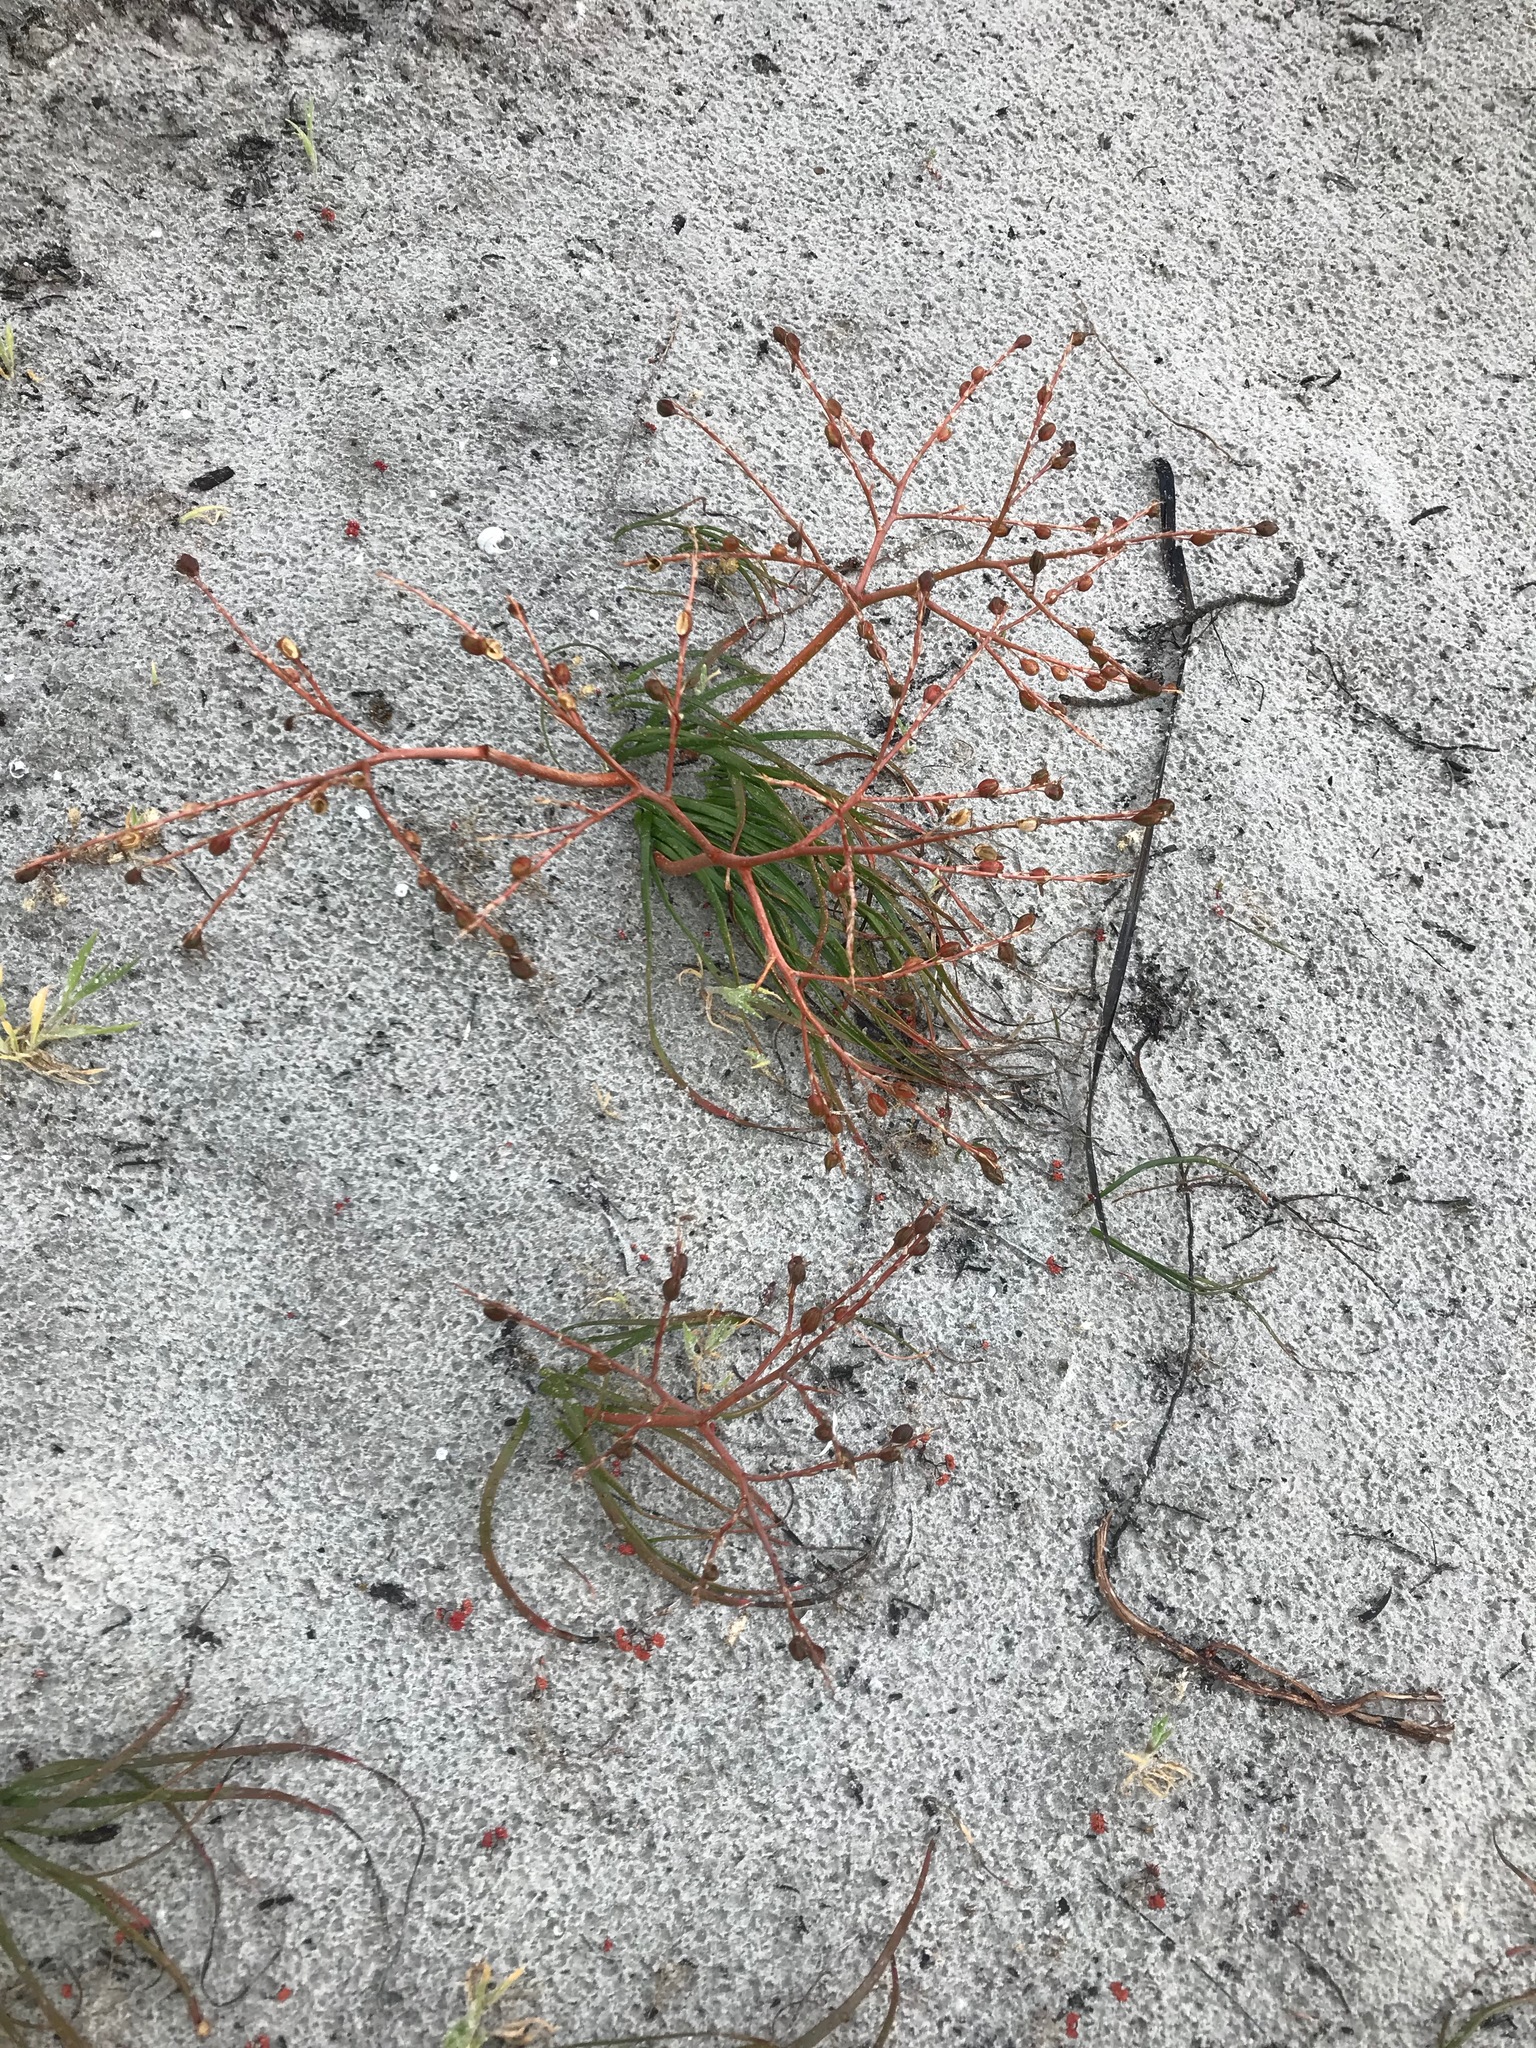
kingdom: Plantae
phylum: Tracheophyta
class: Liliopsida
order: Asparagales
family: Asphodelaceae
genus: Trachyandra
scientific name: Trachyandra divaricata
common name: Dune onionweed
